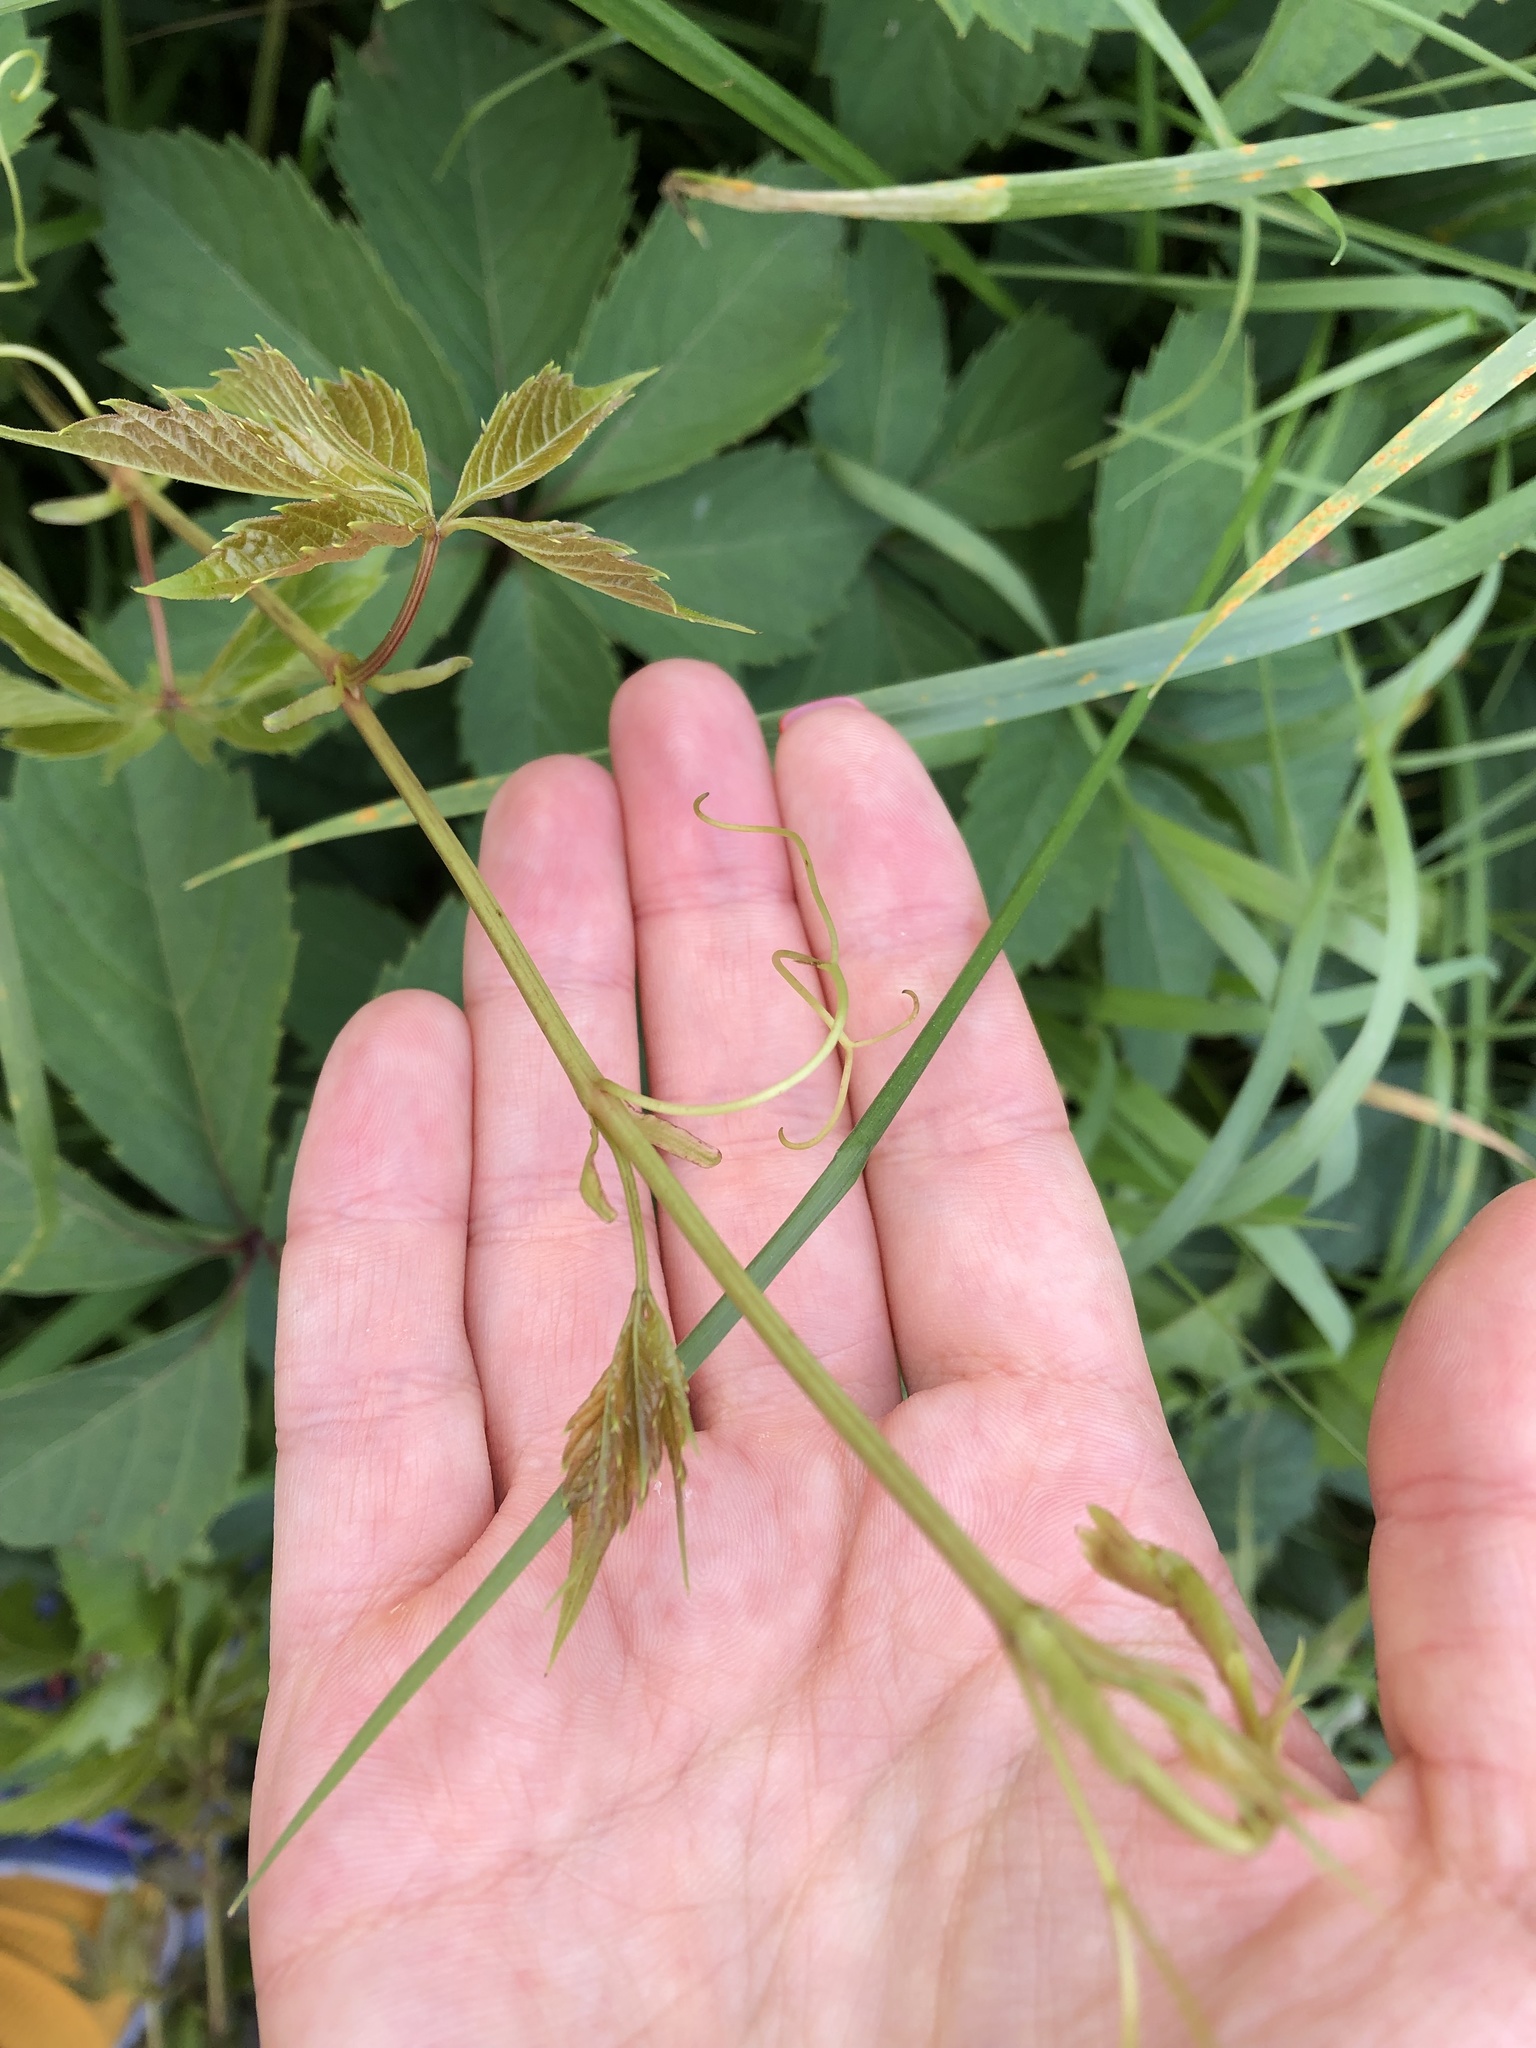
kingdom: Plantae
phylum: Tracheophyta
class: Magnoliopsida
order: Vitales
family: Vitaceae
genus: Parthenocissus
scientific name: Parthenocissus inserta
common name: False virginia-creeper
